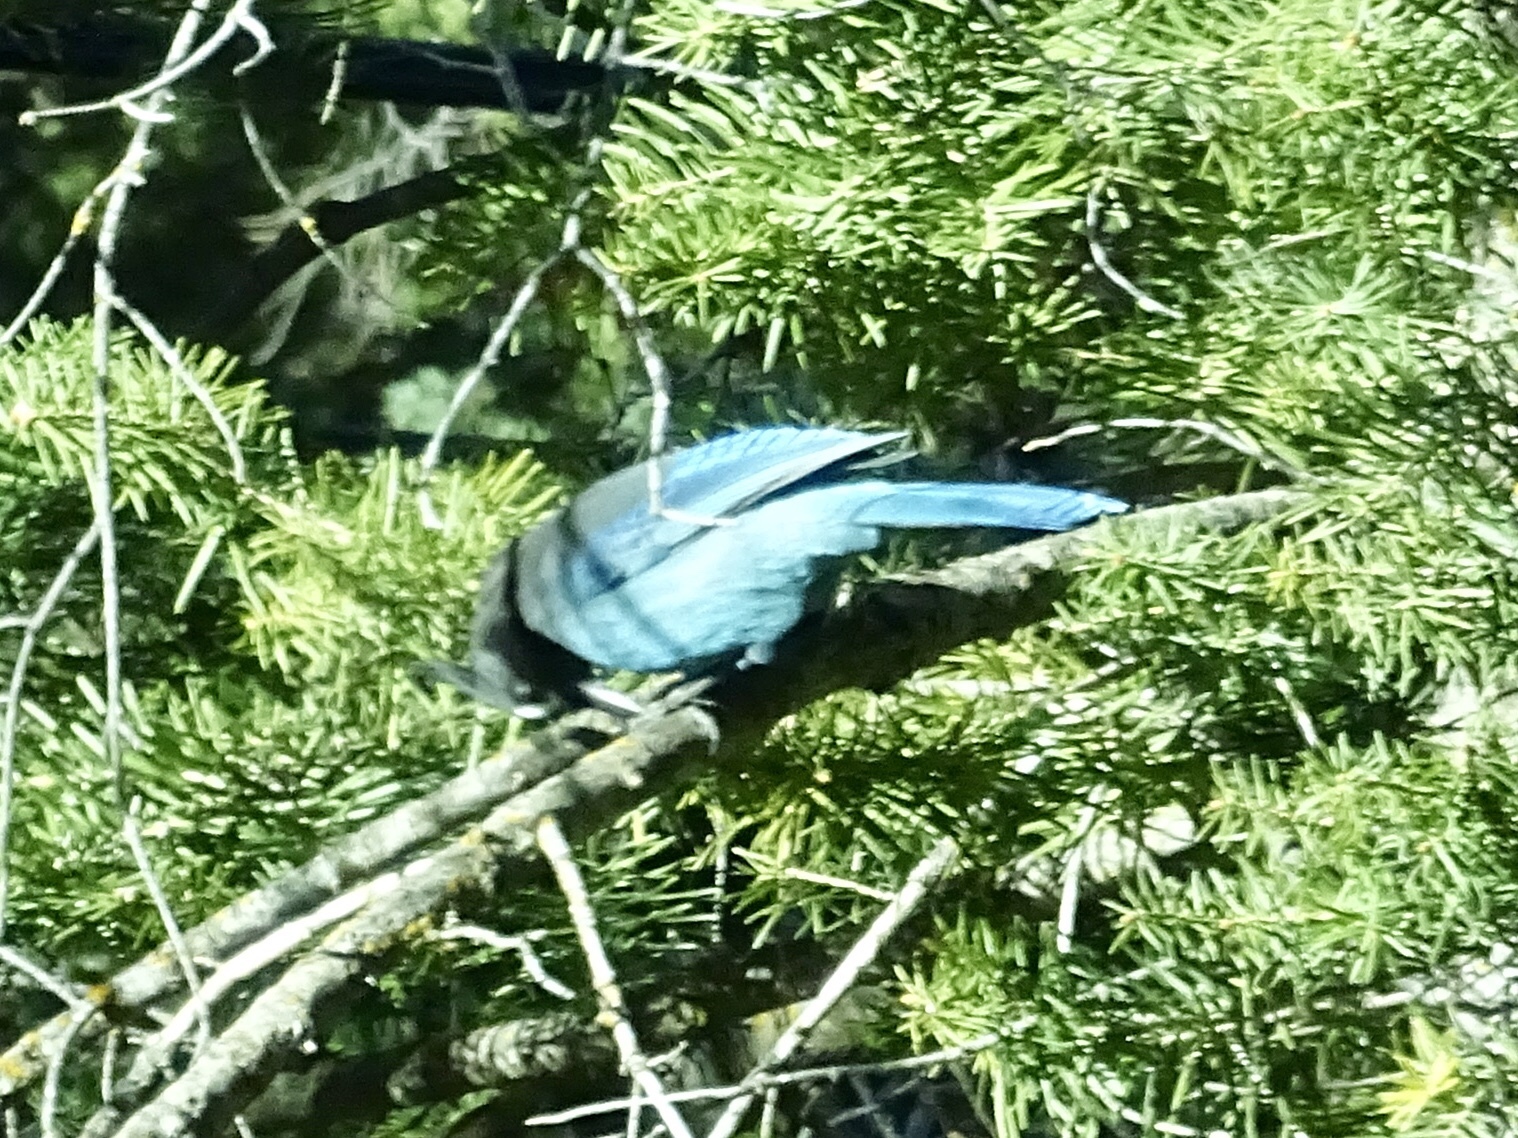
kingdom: Animalia
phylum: Chordata
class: Aves
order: Passeriformes
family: Corvidae
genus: Cyanocitta
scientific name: Cyanocitta stelleri
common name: Steller's jay
